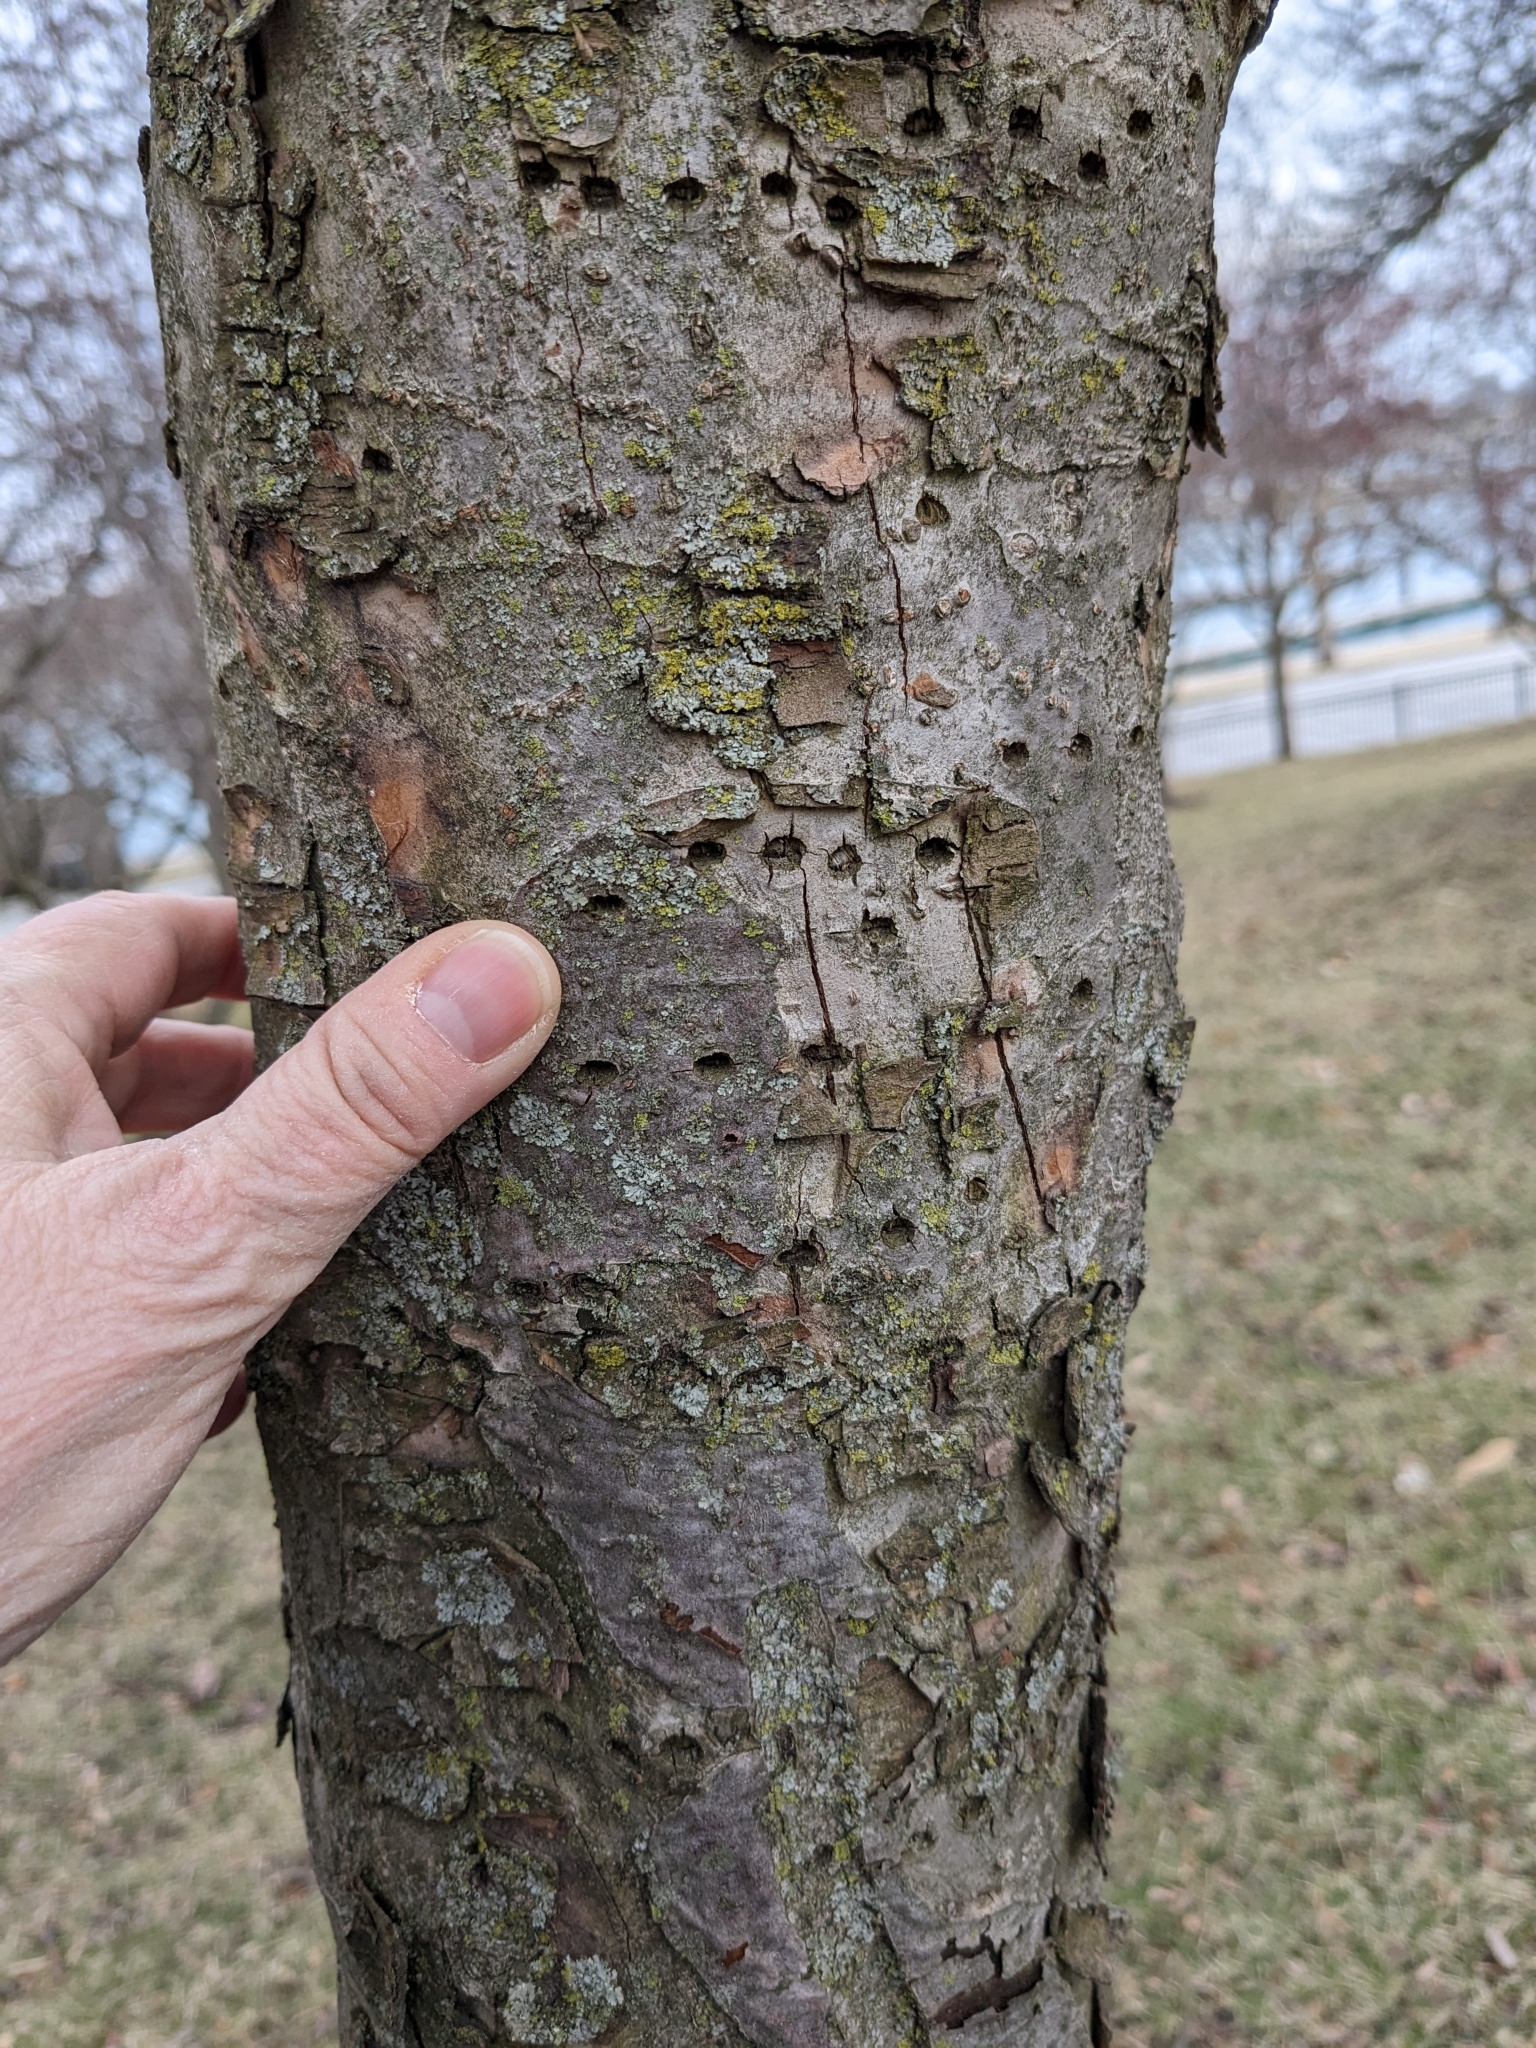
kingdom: Animalia
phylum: Chordata
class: Aves
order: Piciformes
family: Picidae
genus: Sphyrapicus
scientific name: Sphyrapicus varius
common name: Yellow-bellied sapsucker
